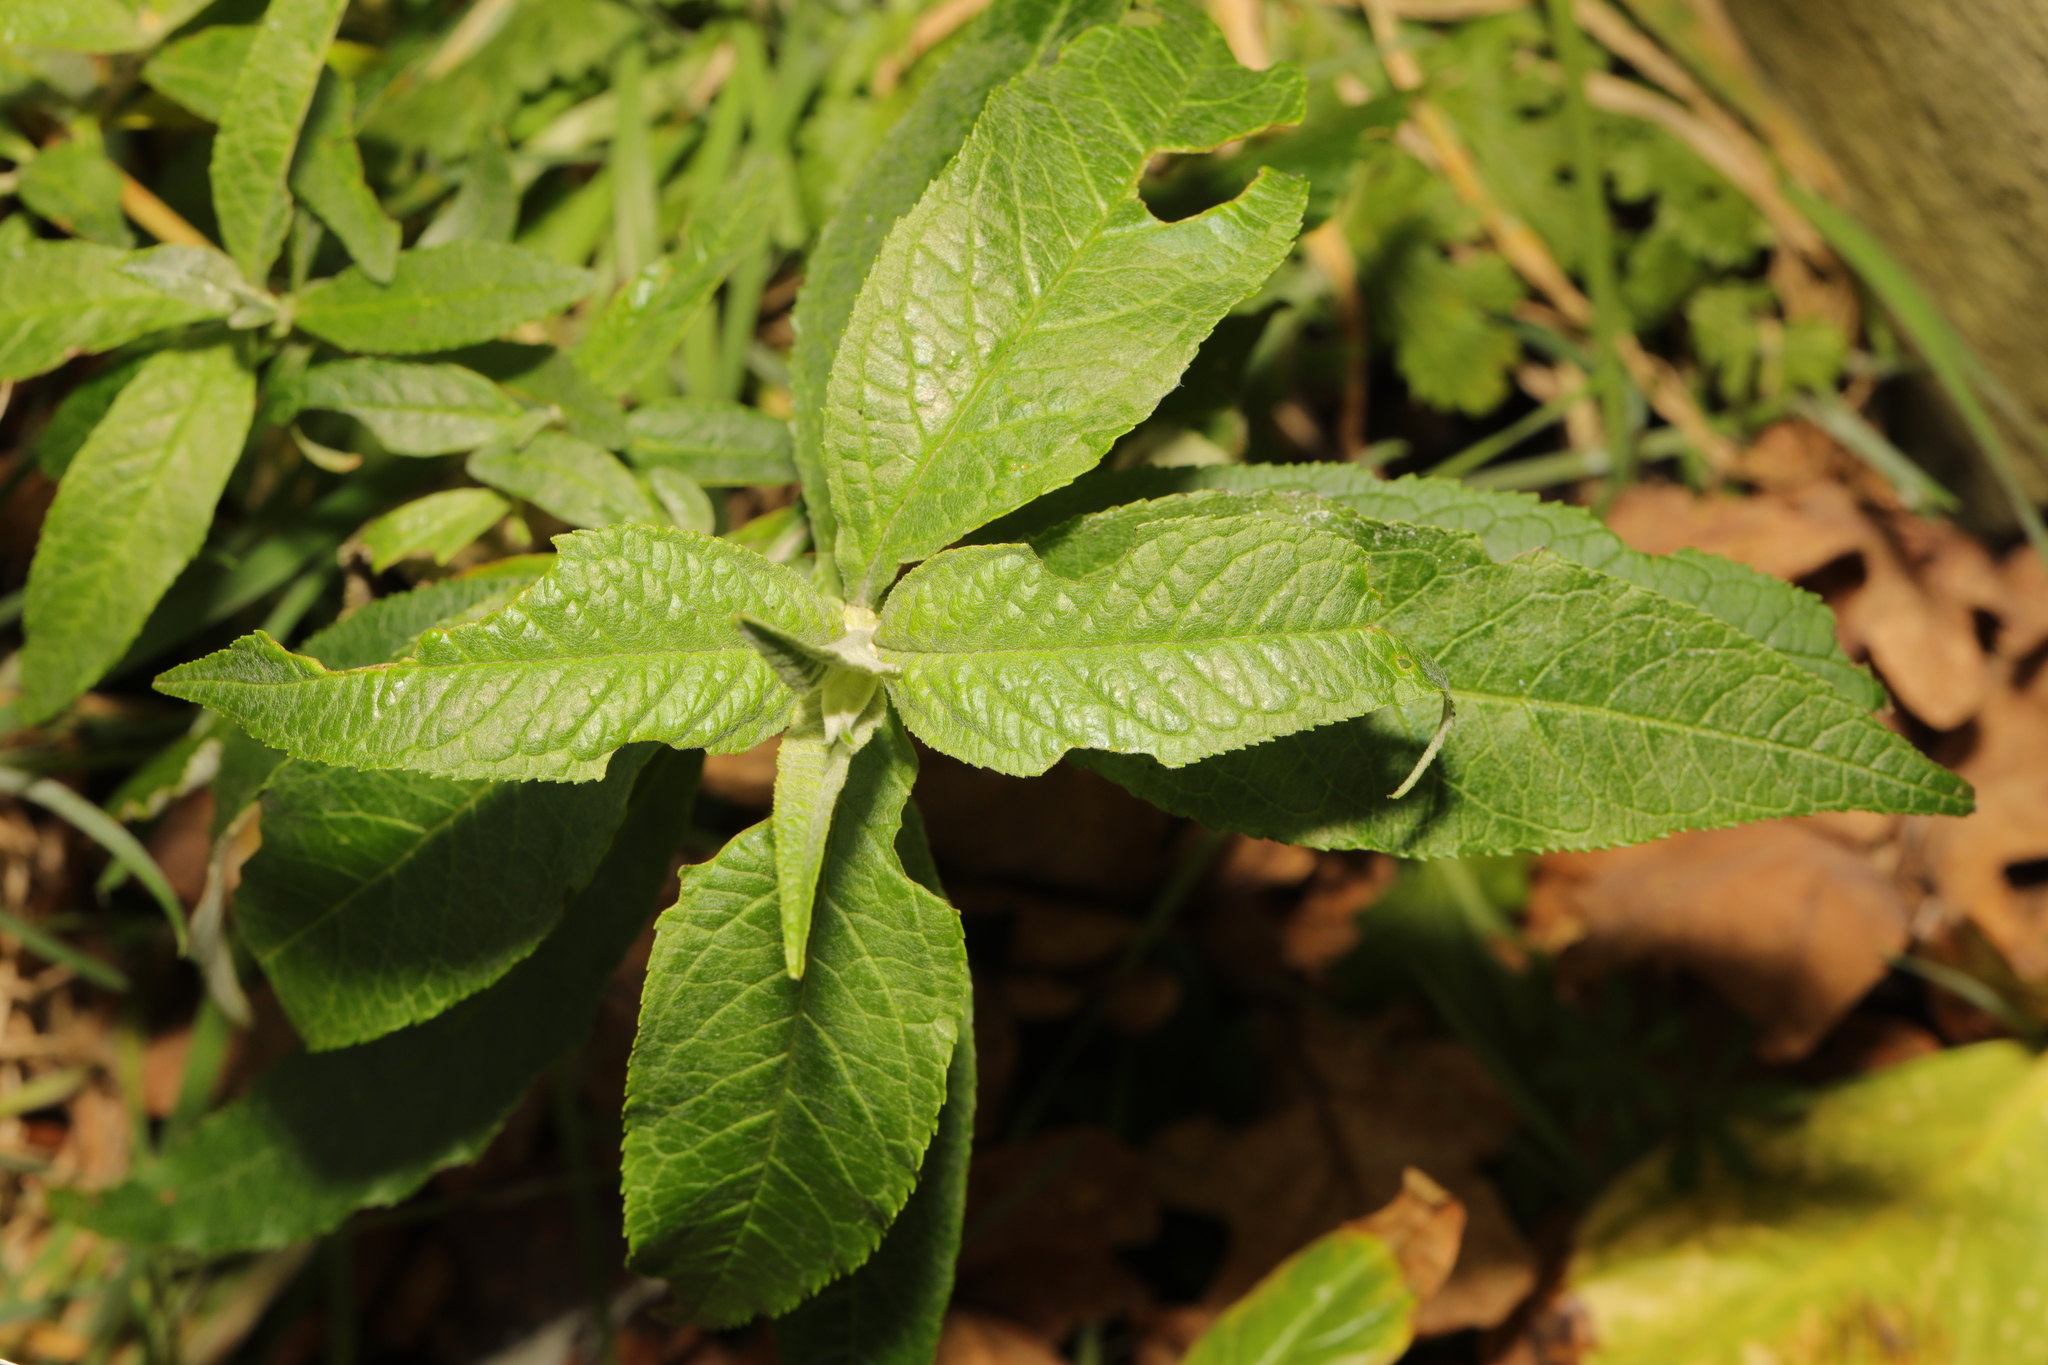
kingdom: Plantae
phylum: Tracheophyta
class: Magnoliopsida
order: Lamiales
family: Scrophulariaceae
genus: Buddleja
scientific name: Buddleja davidii
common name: Butterfly-bush
